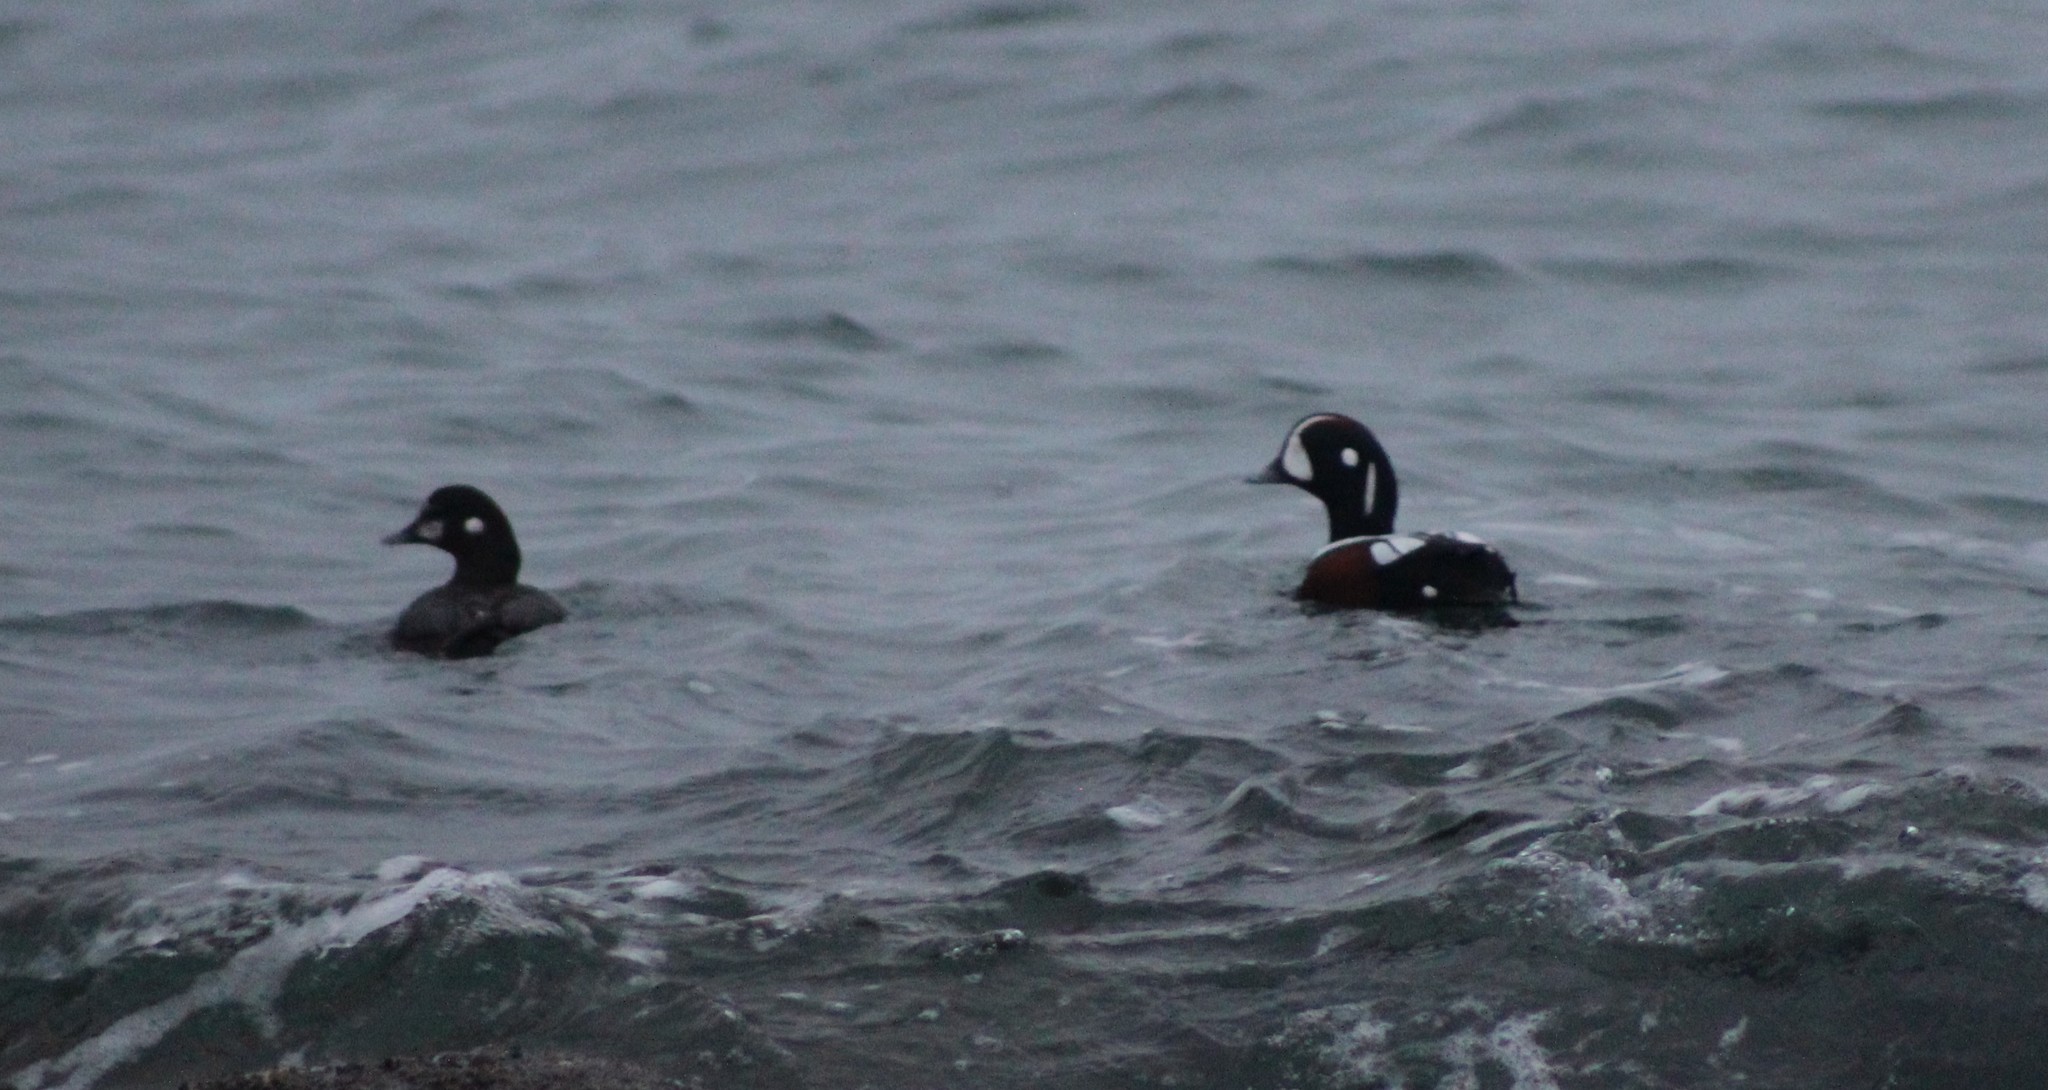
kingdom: Animalia
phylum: Chordata
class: Aves
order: Anseriformes
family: Anatidae
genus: Histrionicus
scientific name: Histrionicus histrionicus
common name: Harlequin duck
